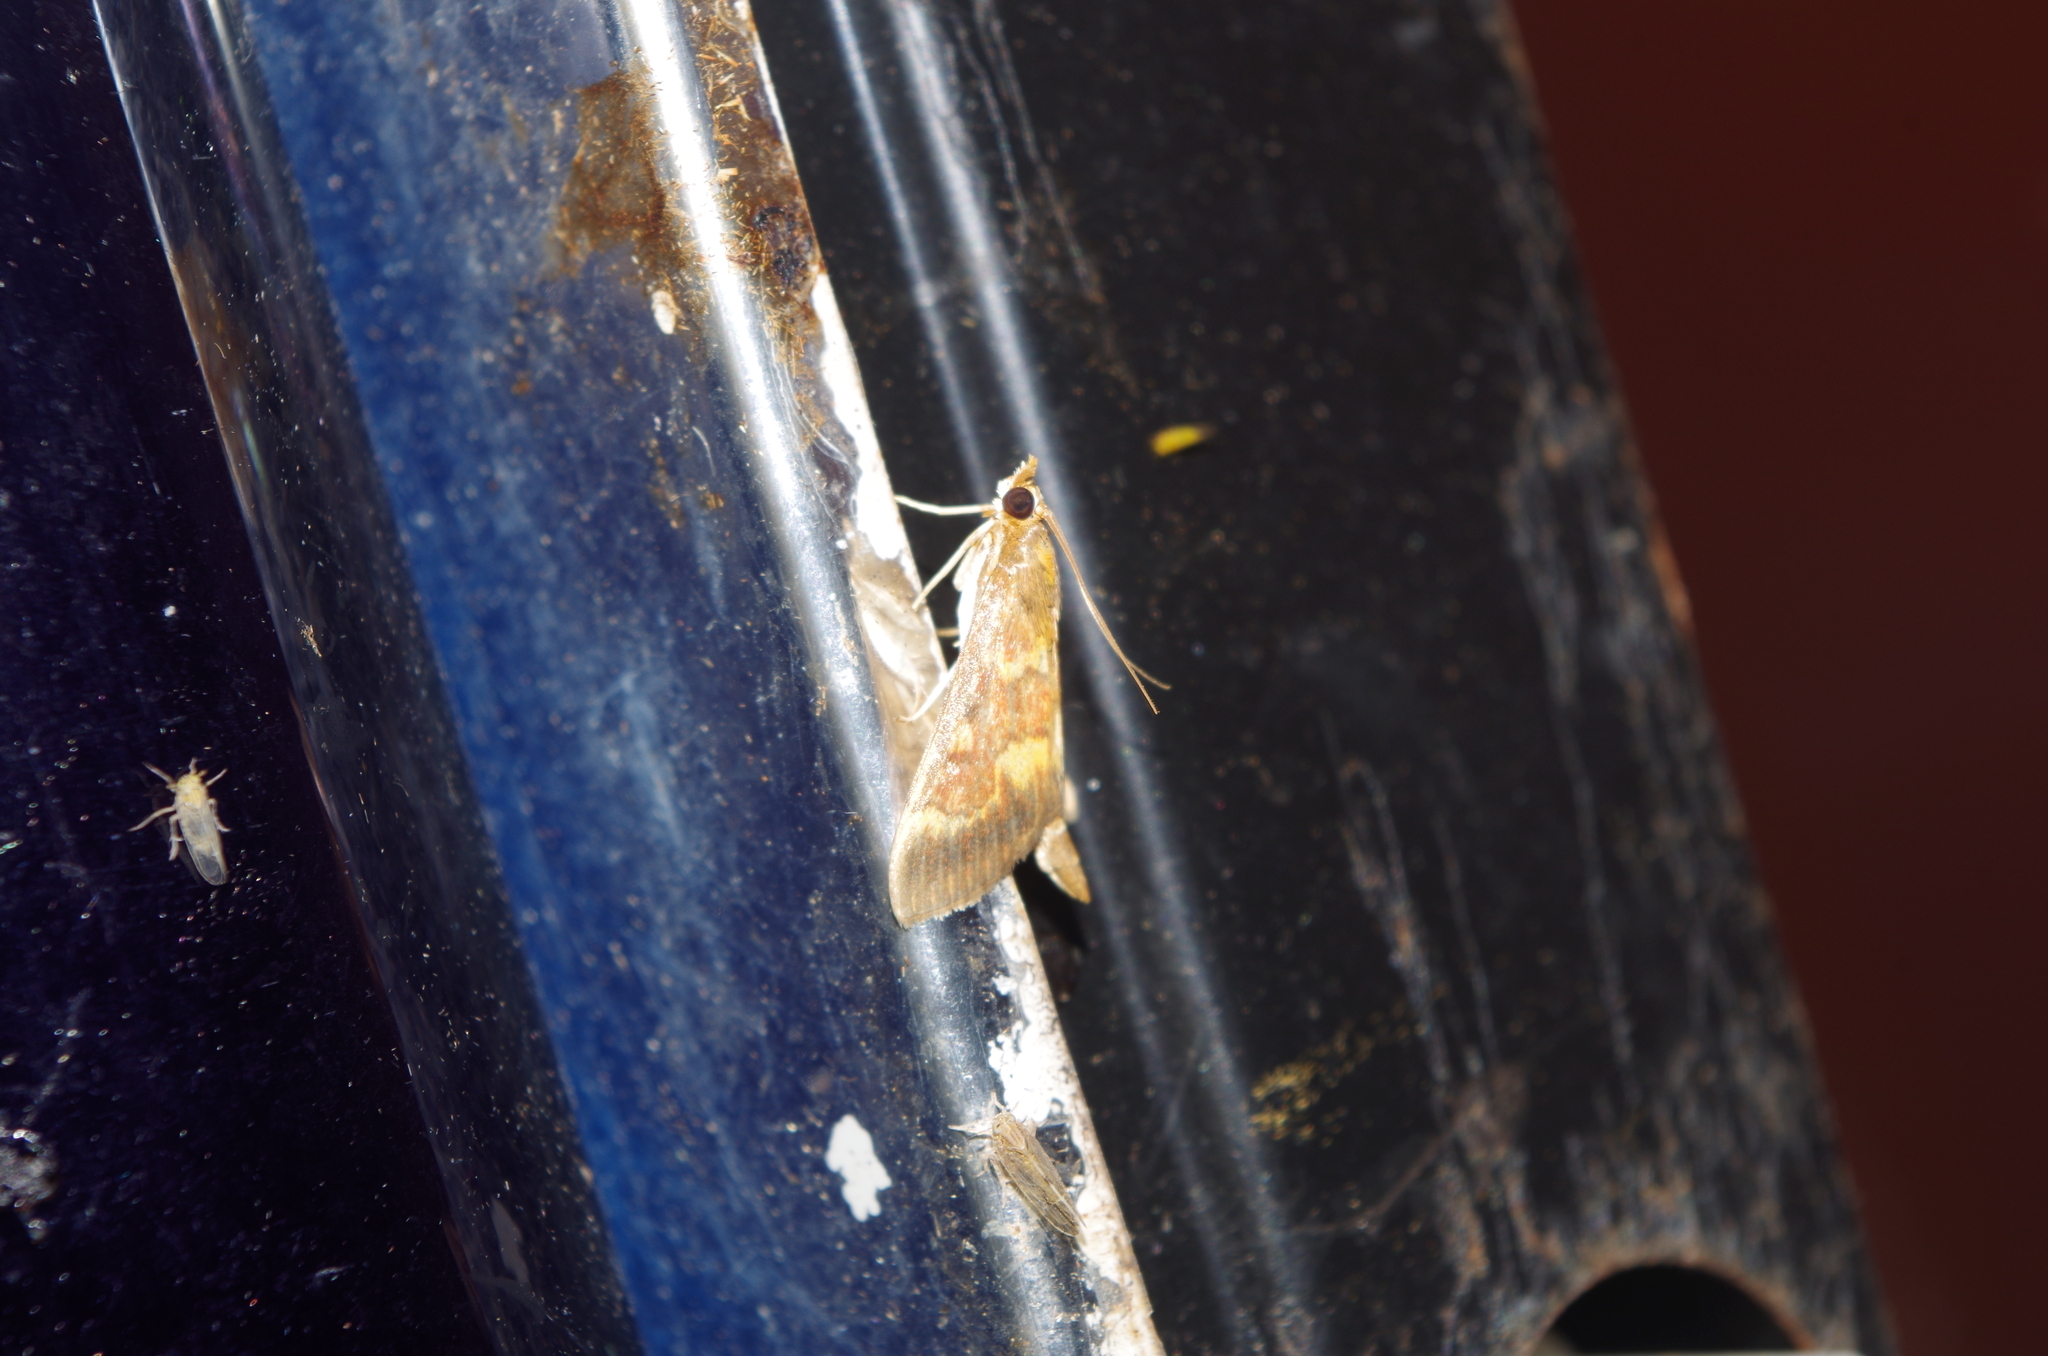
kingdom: Animalia
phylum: Arthropoda
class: Insecta
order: Lepidoptera
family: Crambidae
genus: Ostrinia
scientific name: Ostrinia zaguliaevi
